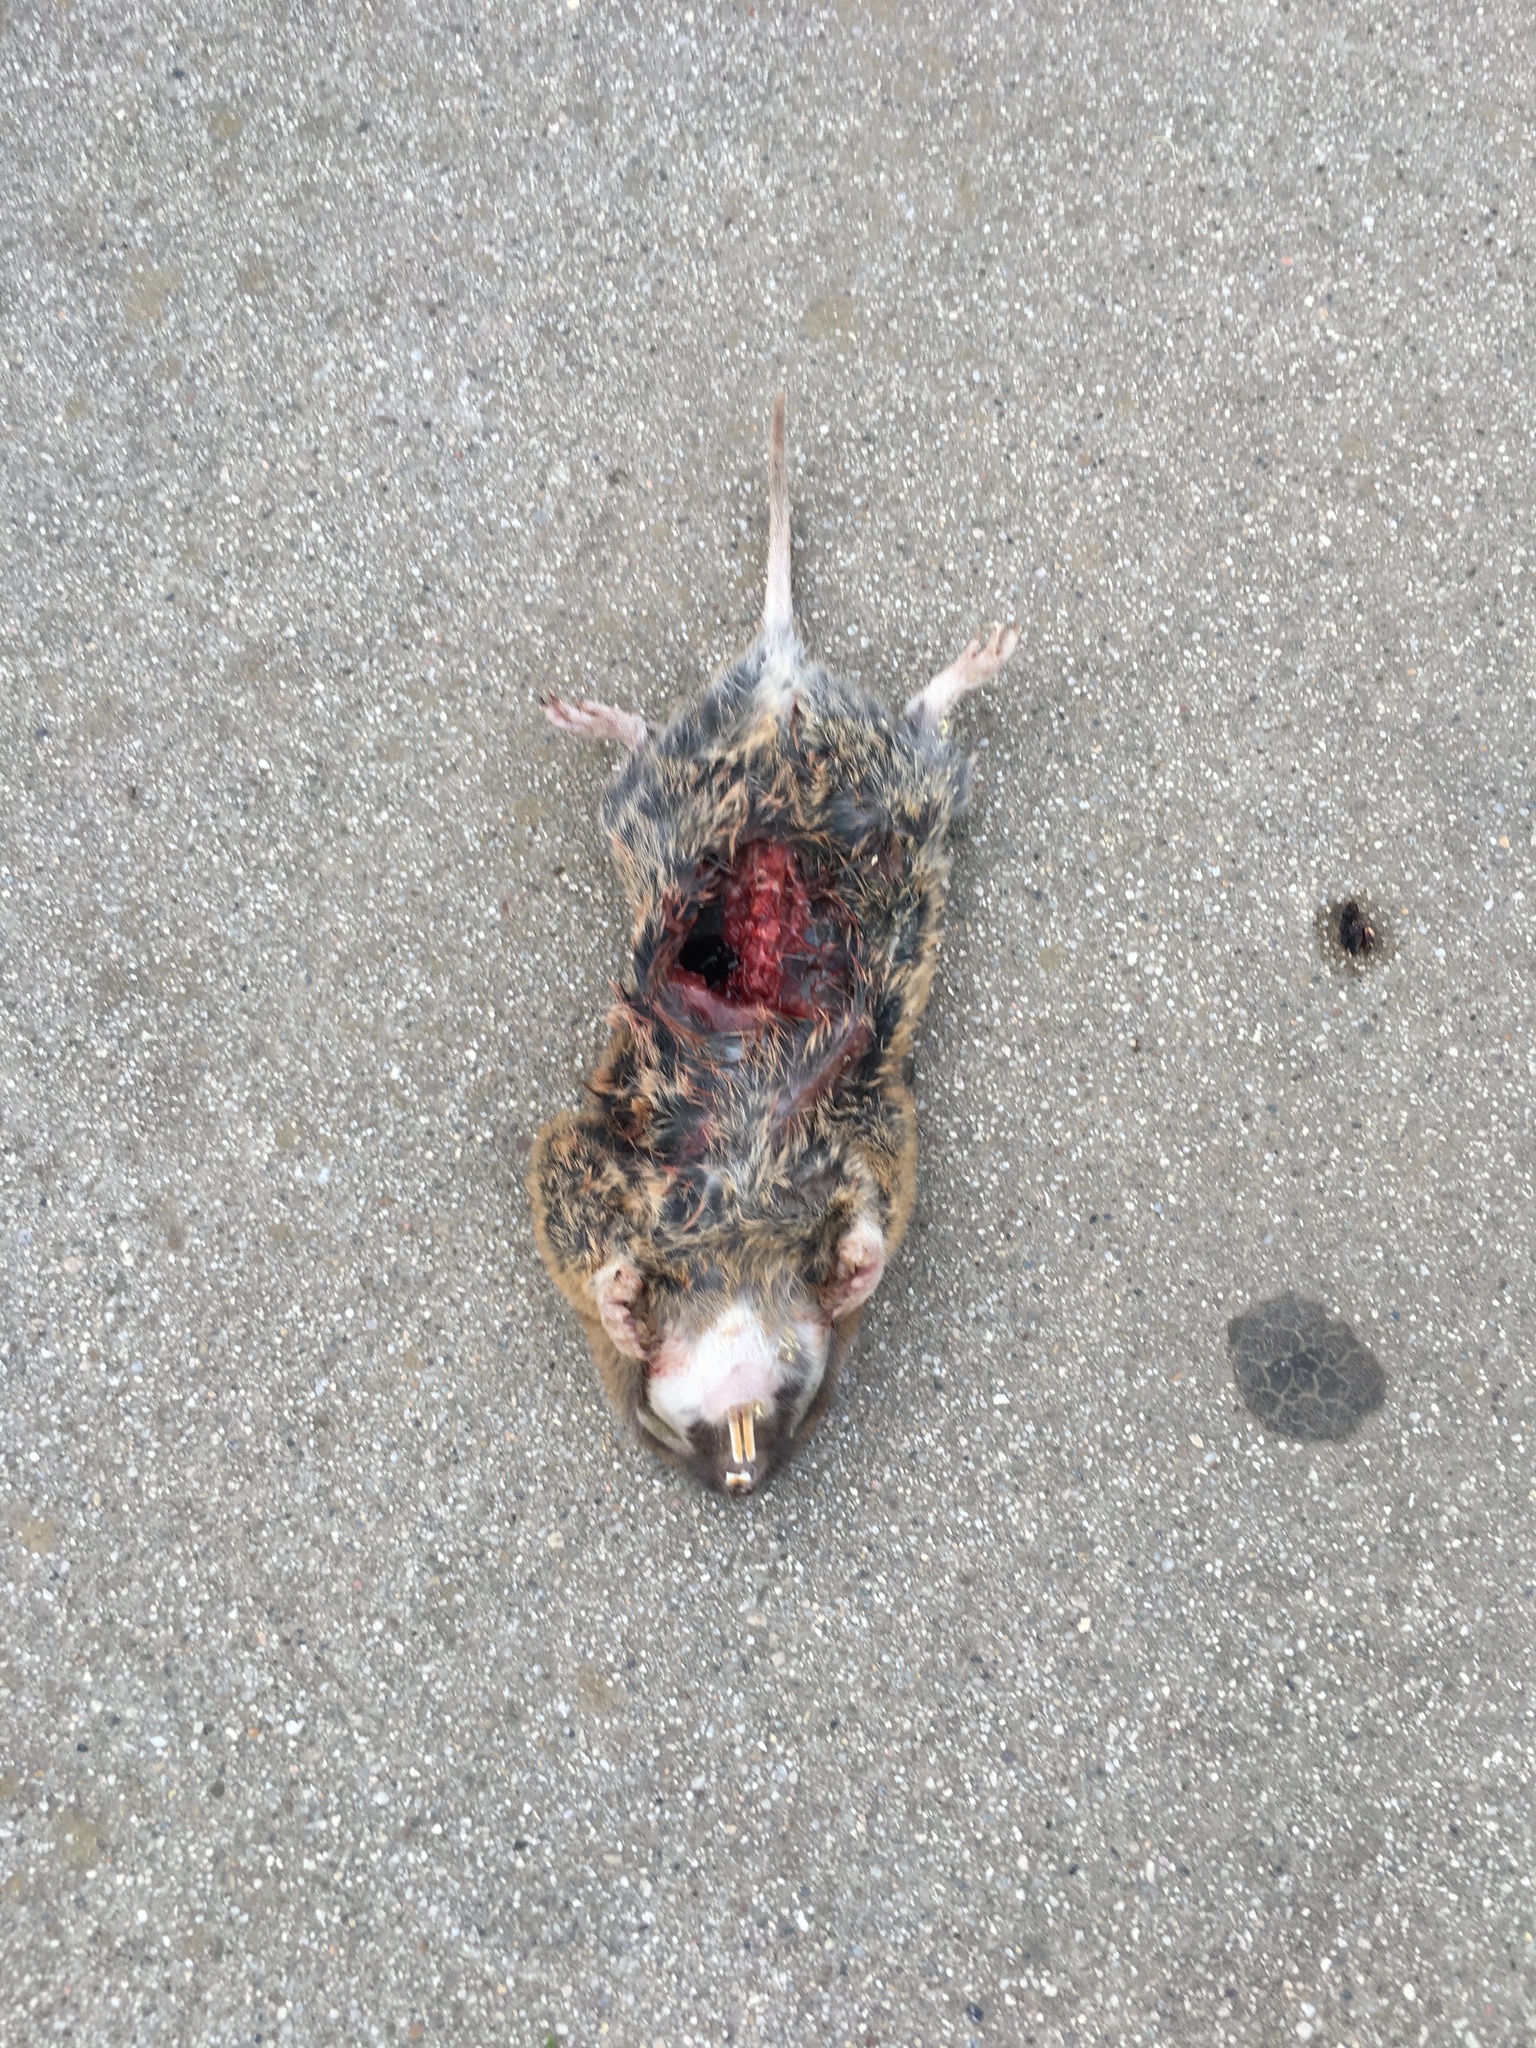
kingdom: Animalia
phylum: Chordata
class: Mammalia
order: Rodentia
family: Geomyidae
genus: Thomomys
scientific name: Thomomys bottae
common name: Botta's pocket gopher
